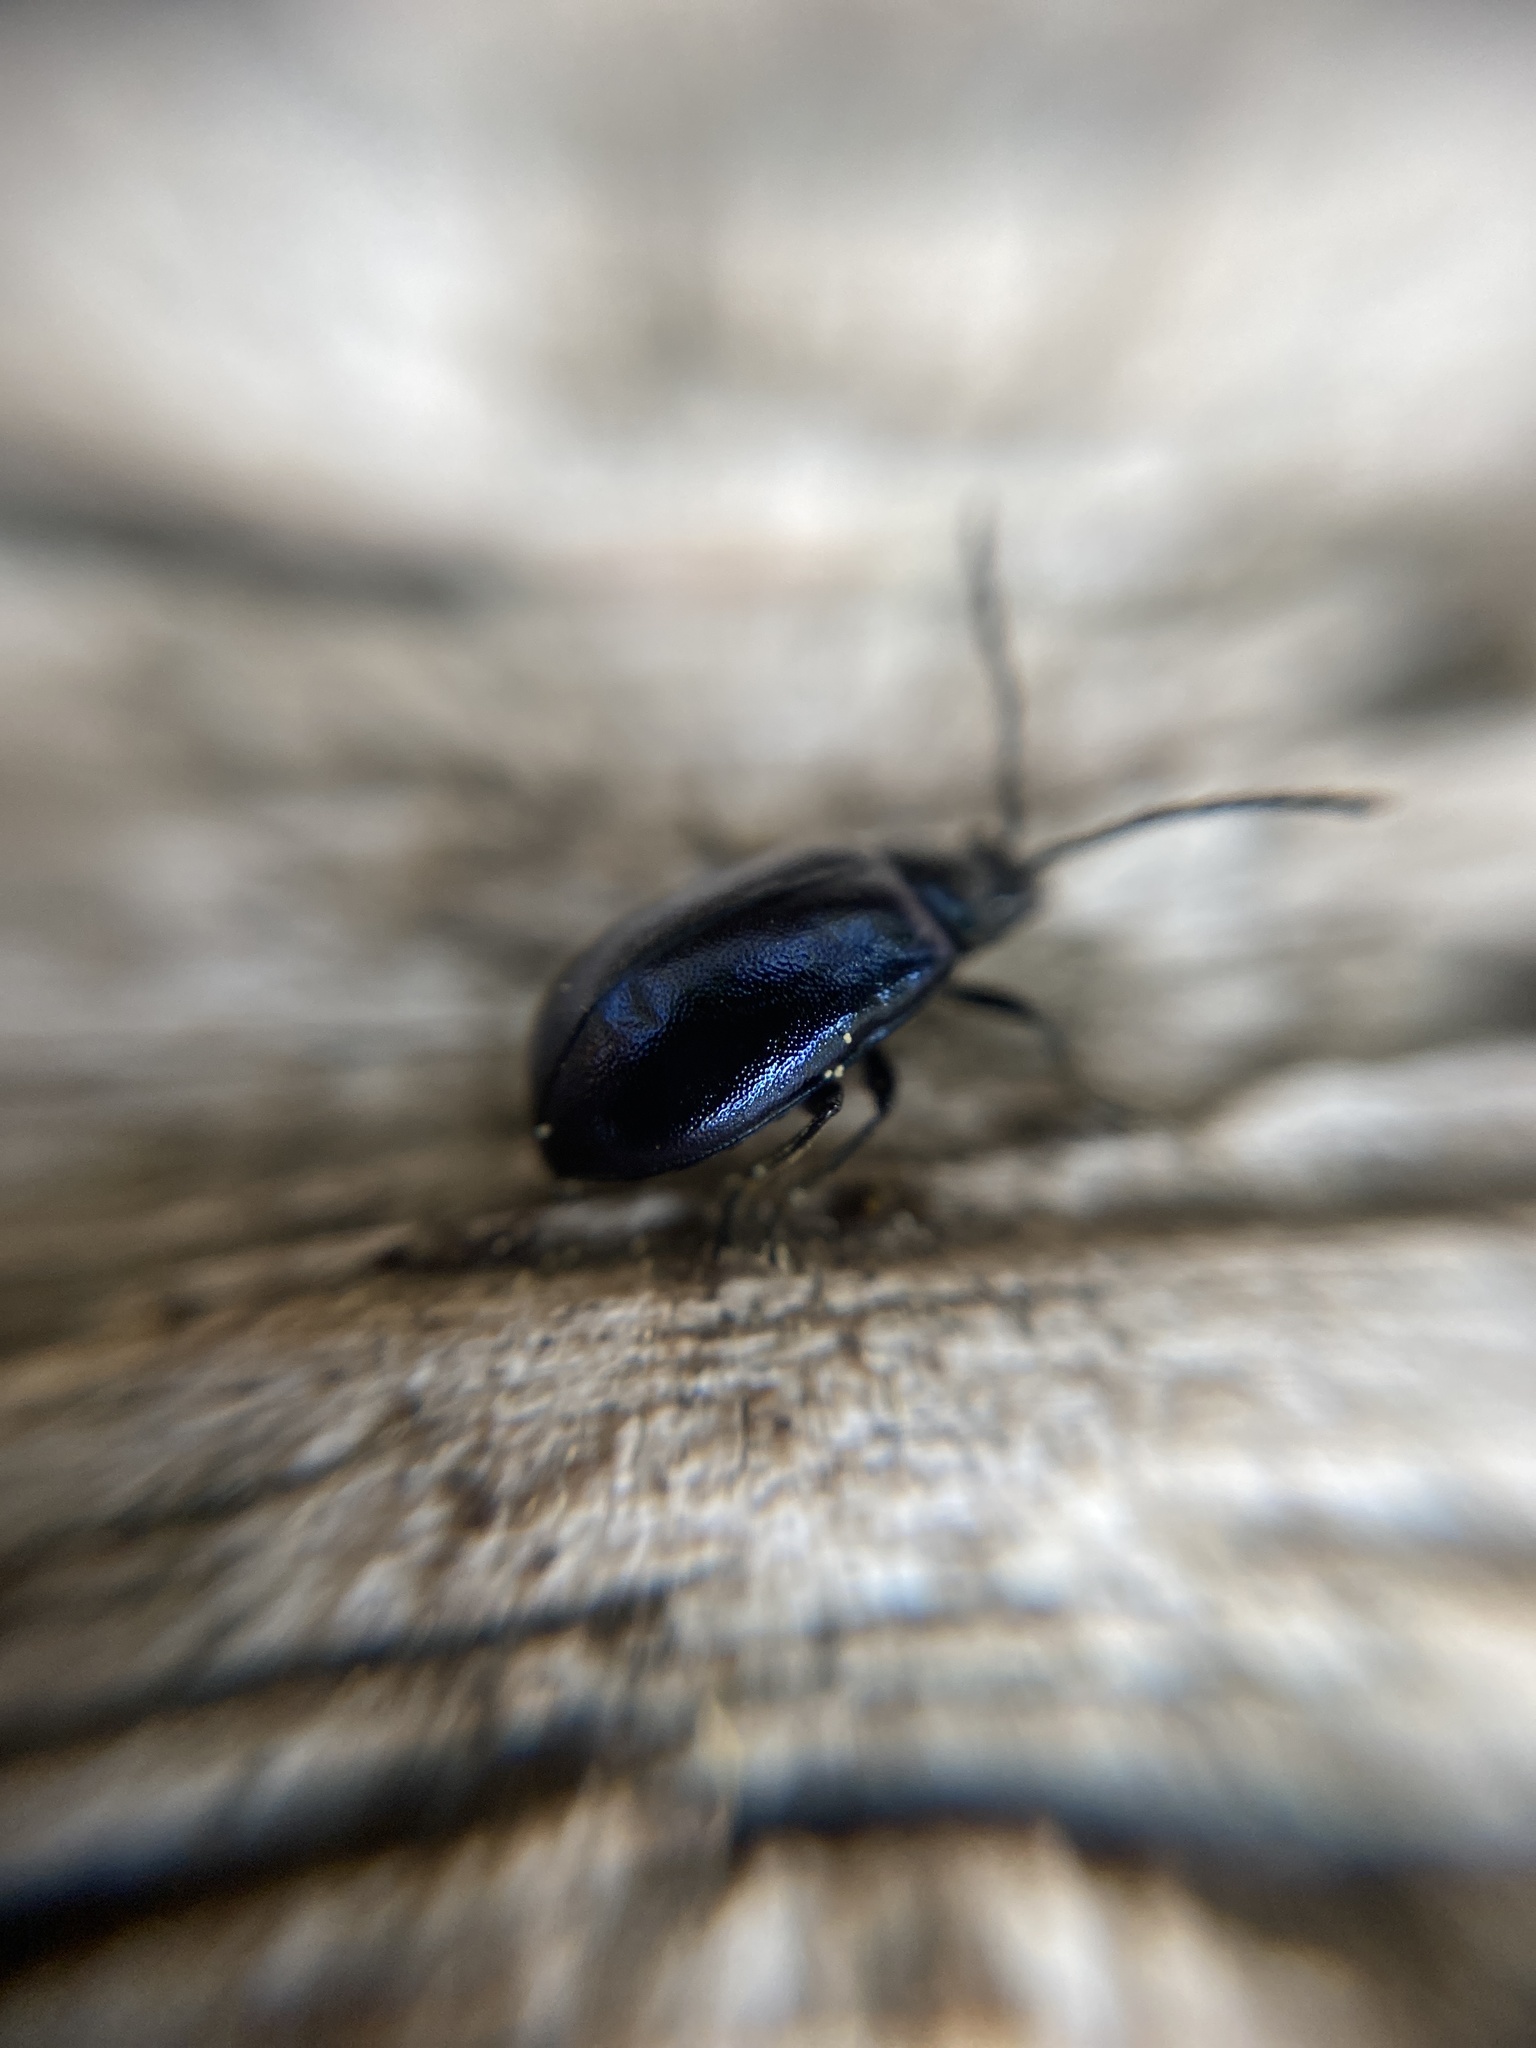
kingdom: Animalia
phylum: Arthropoda
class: Insecta
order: Coleoptera
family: Chrysomelidae
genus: Agelastica
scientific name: Agelastica alni
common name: Alder leaf beetle
